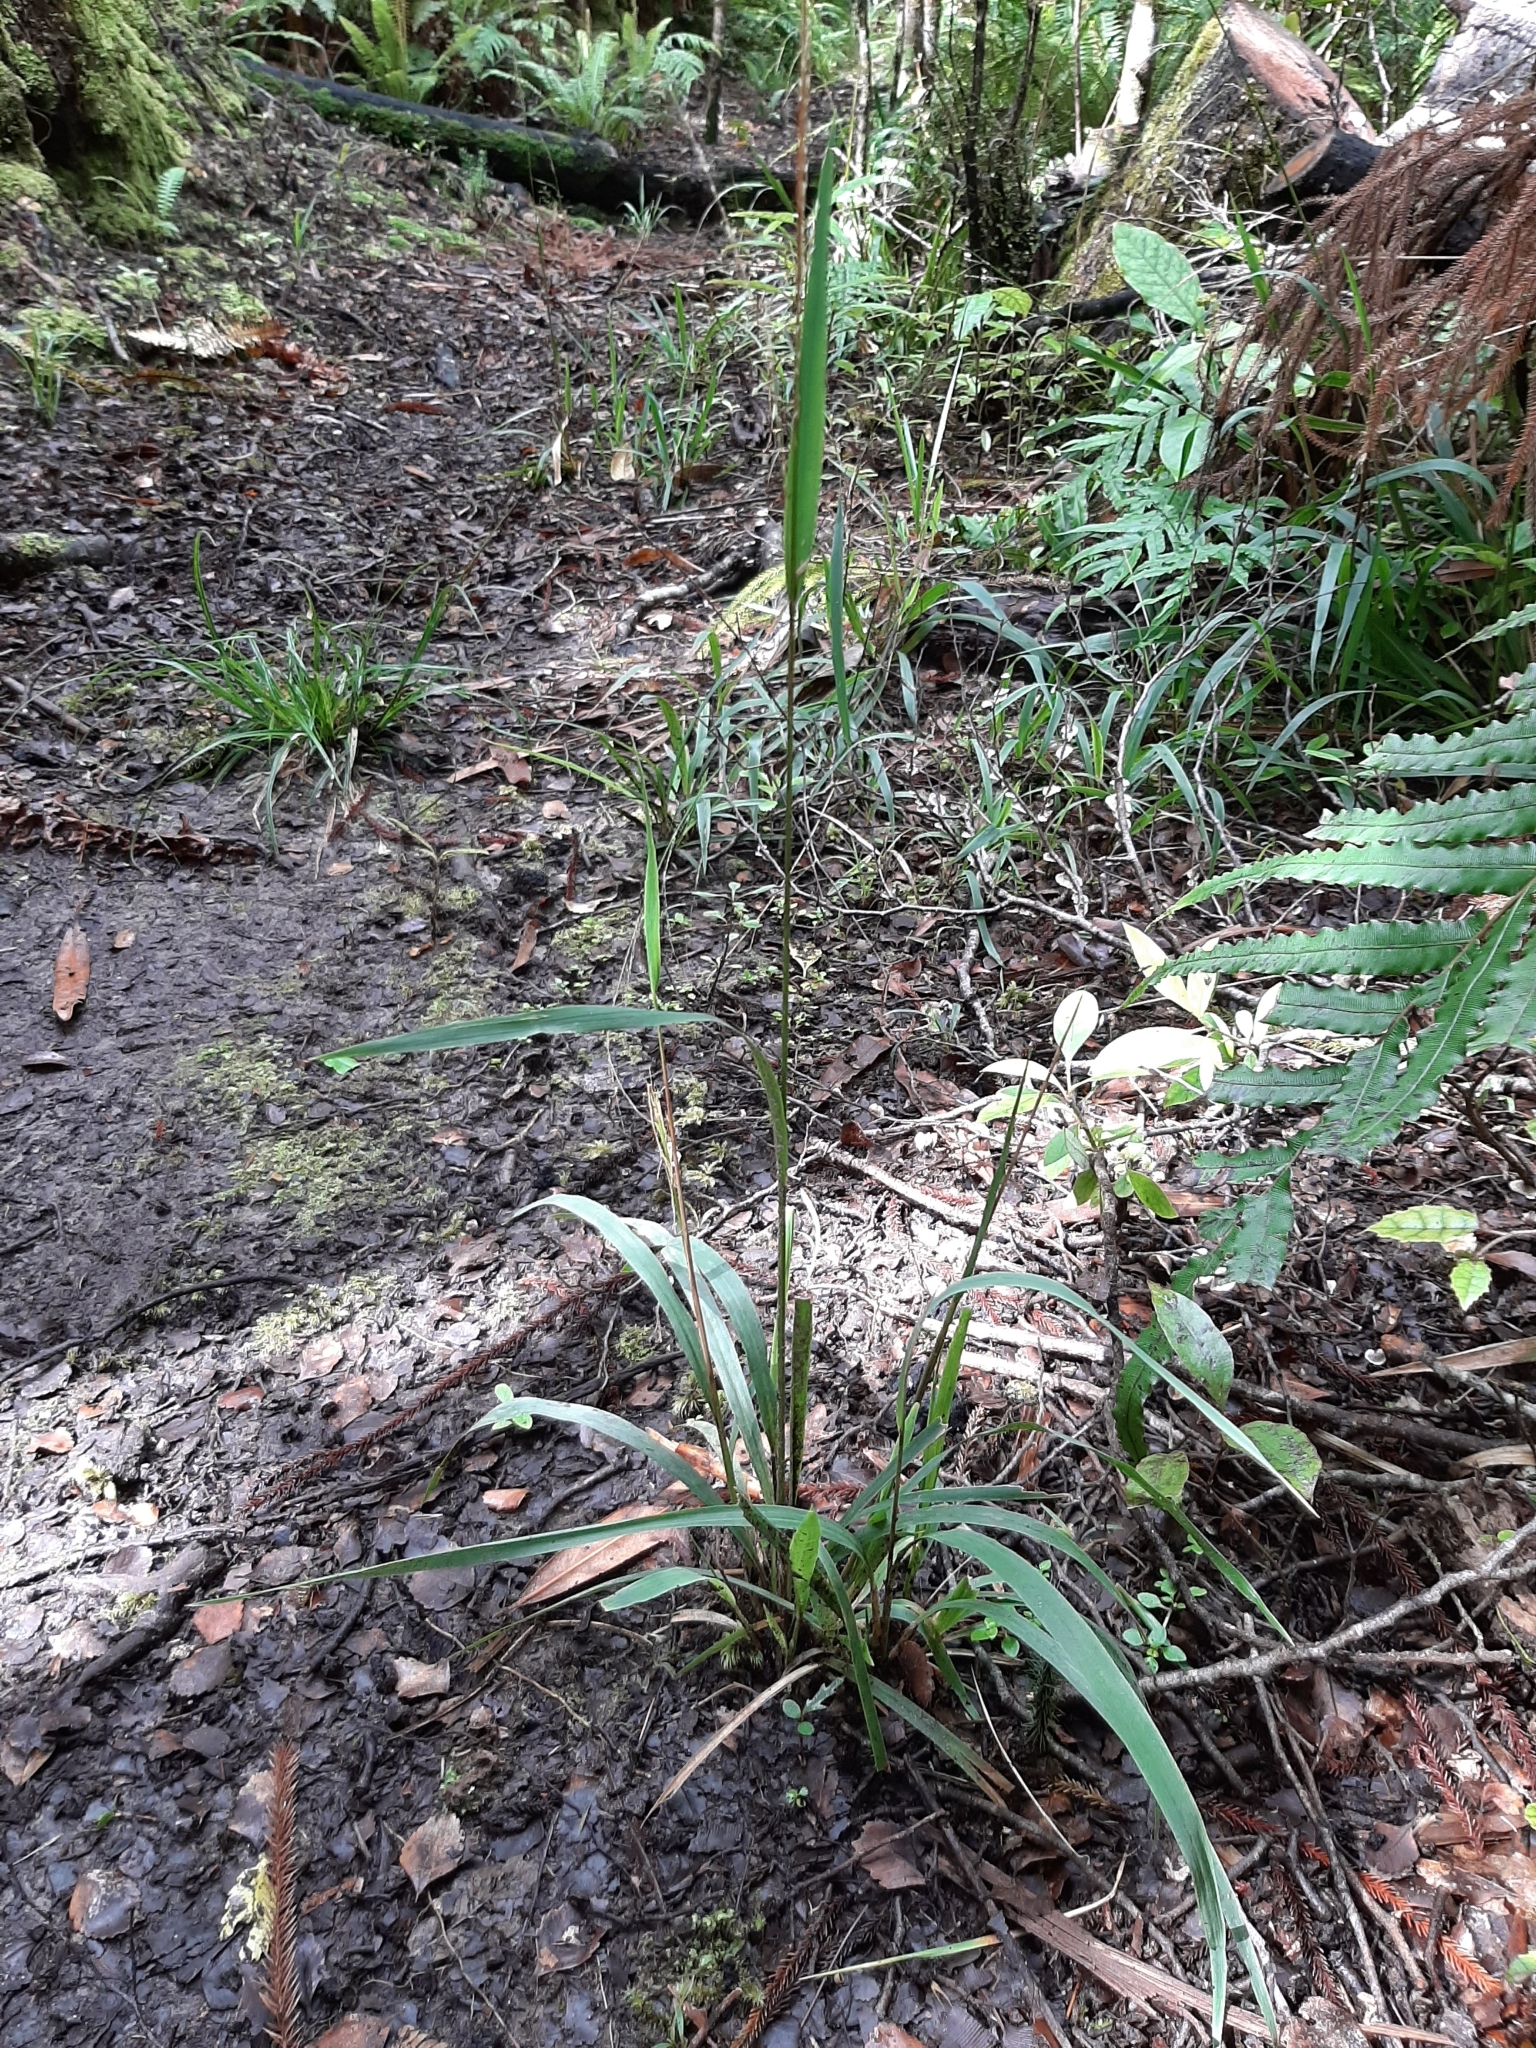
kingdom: Plantae
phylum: Tracheophyta
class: Liliopsida
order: Poales
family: Poaceae
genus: Ehrharta
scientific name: Ehrharta diplax
